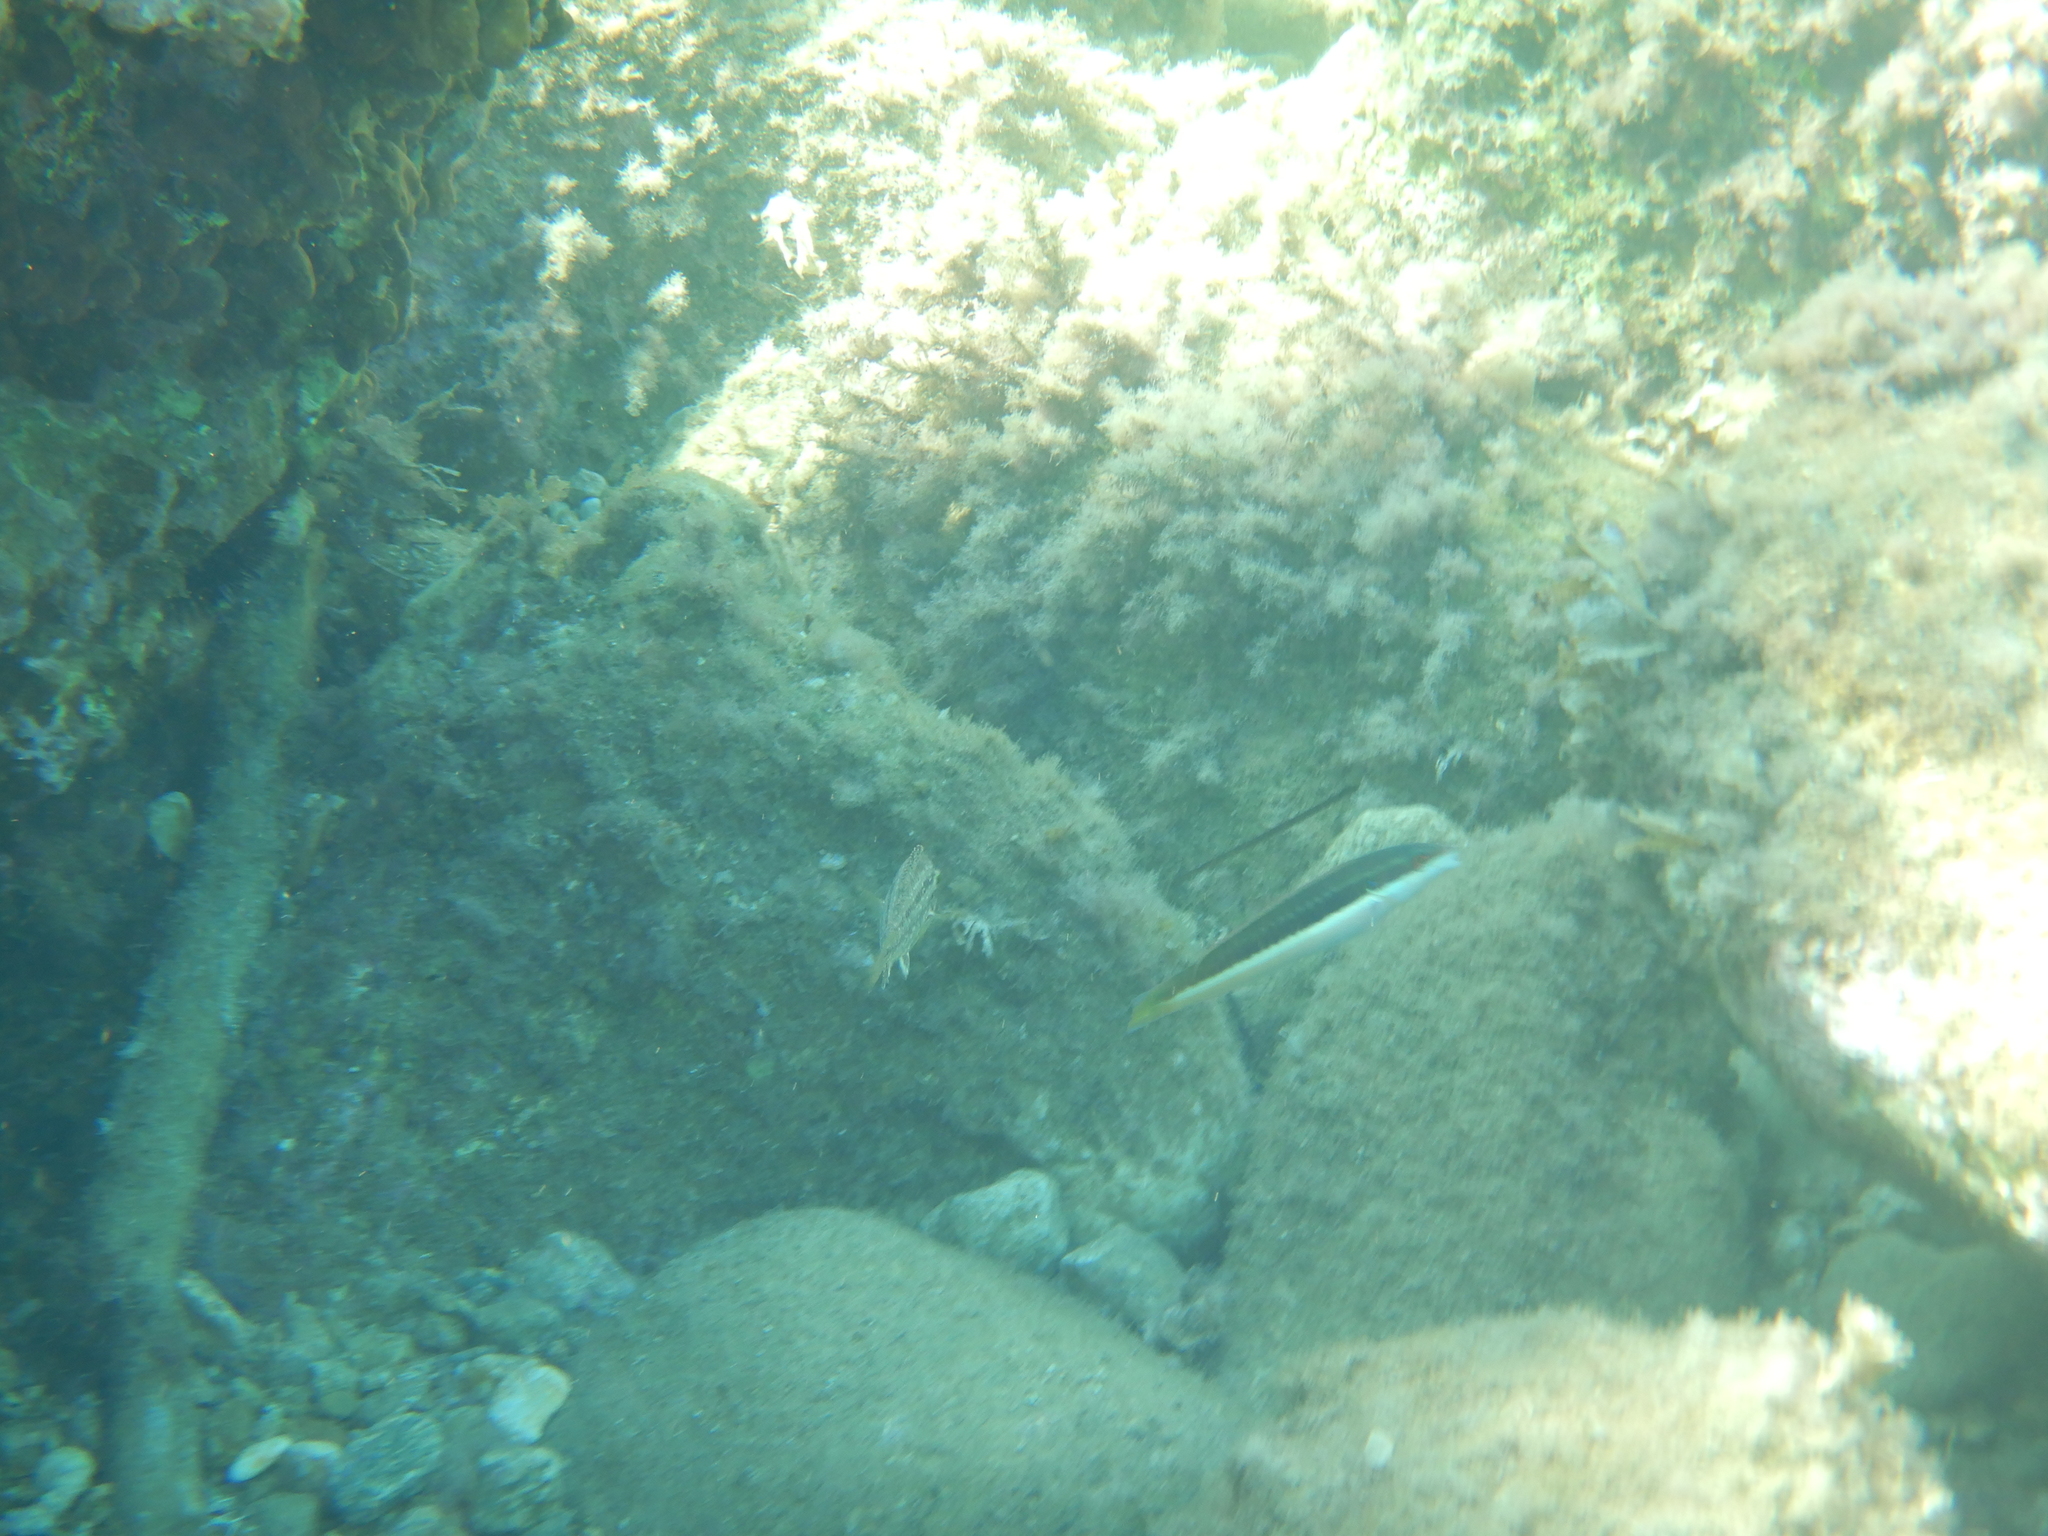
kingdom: Animalia
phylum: Chordata
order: Perciformes
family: Labridae
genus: Coris
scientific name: Coris julis
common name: Rainbow wrasse
